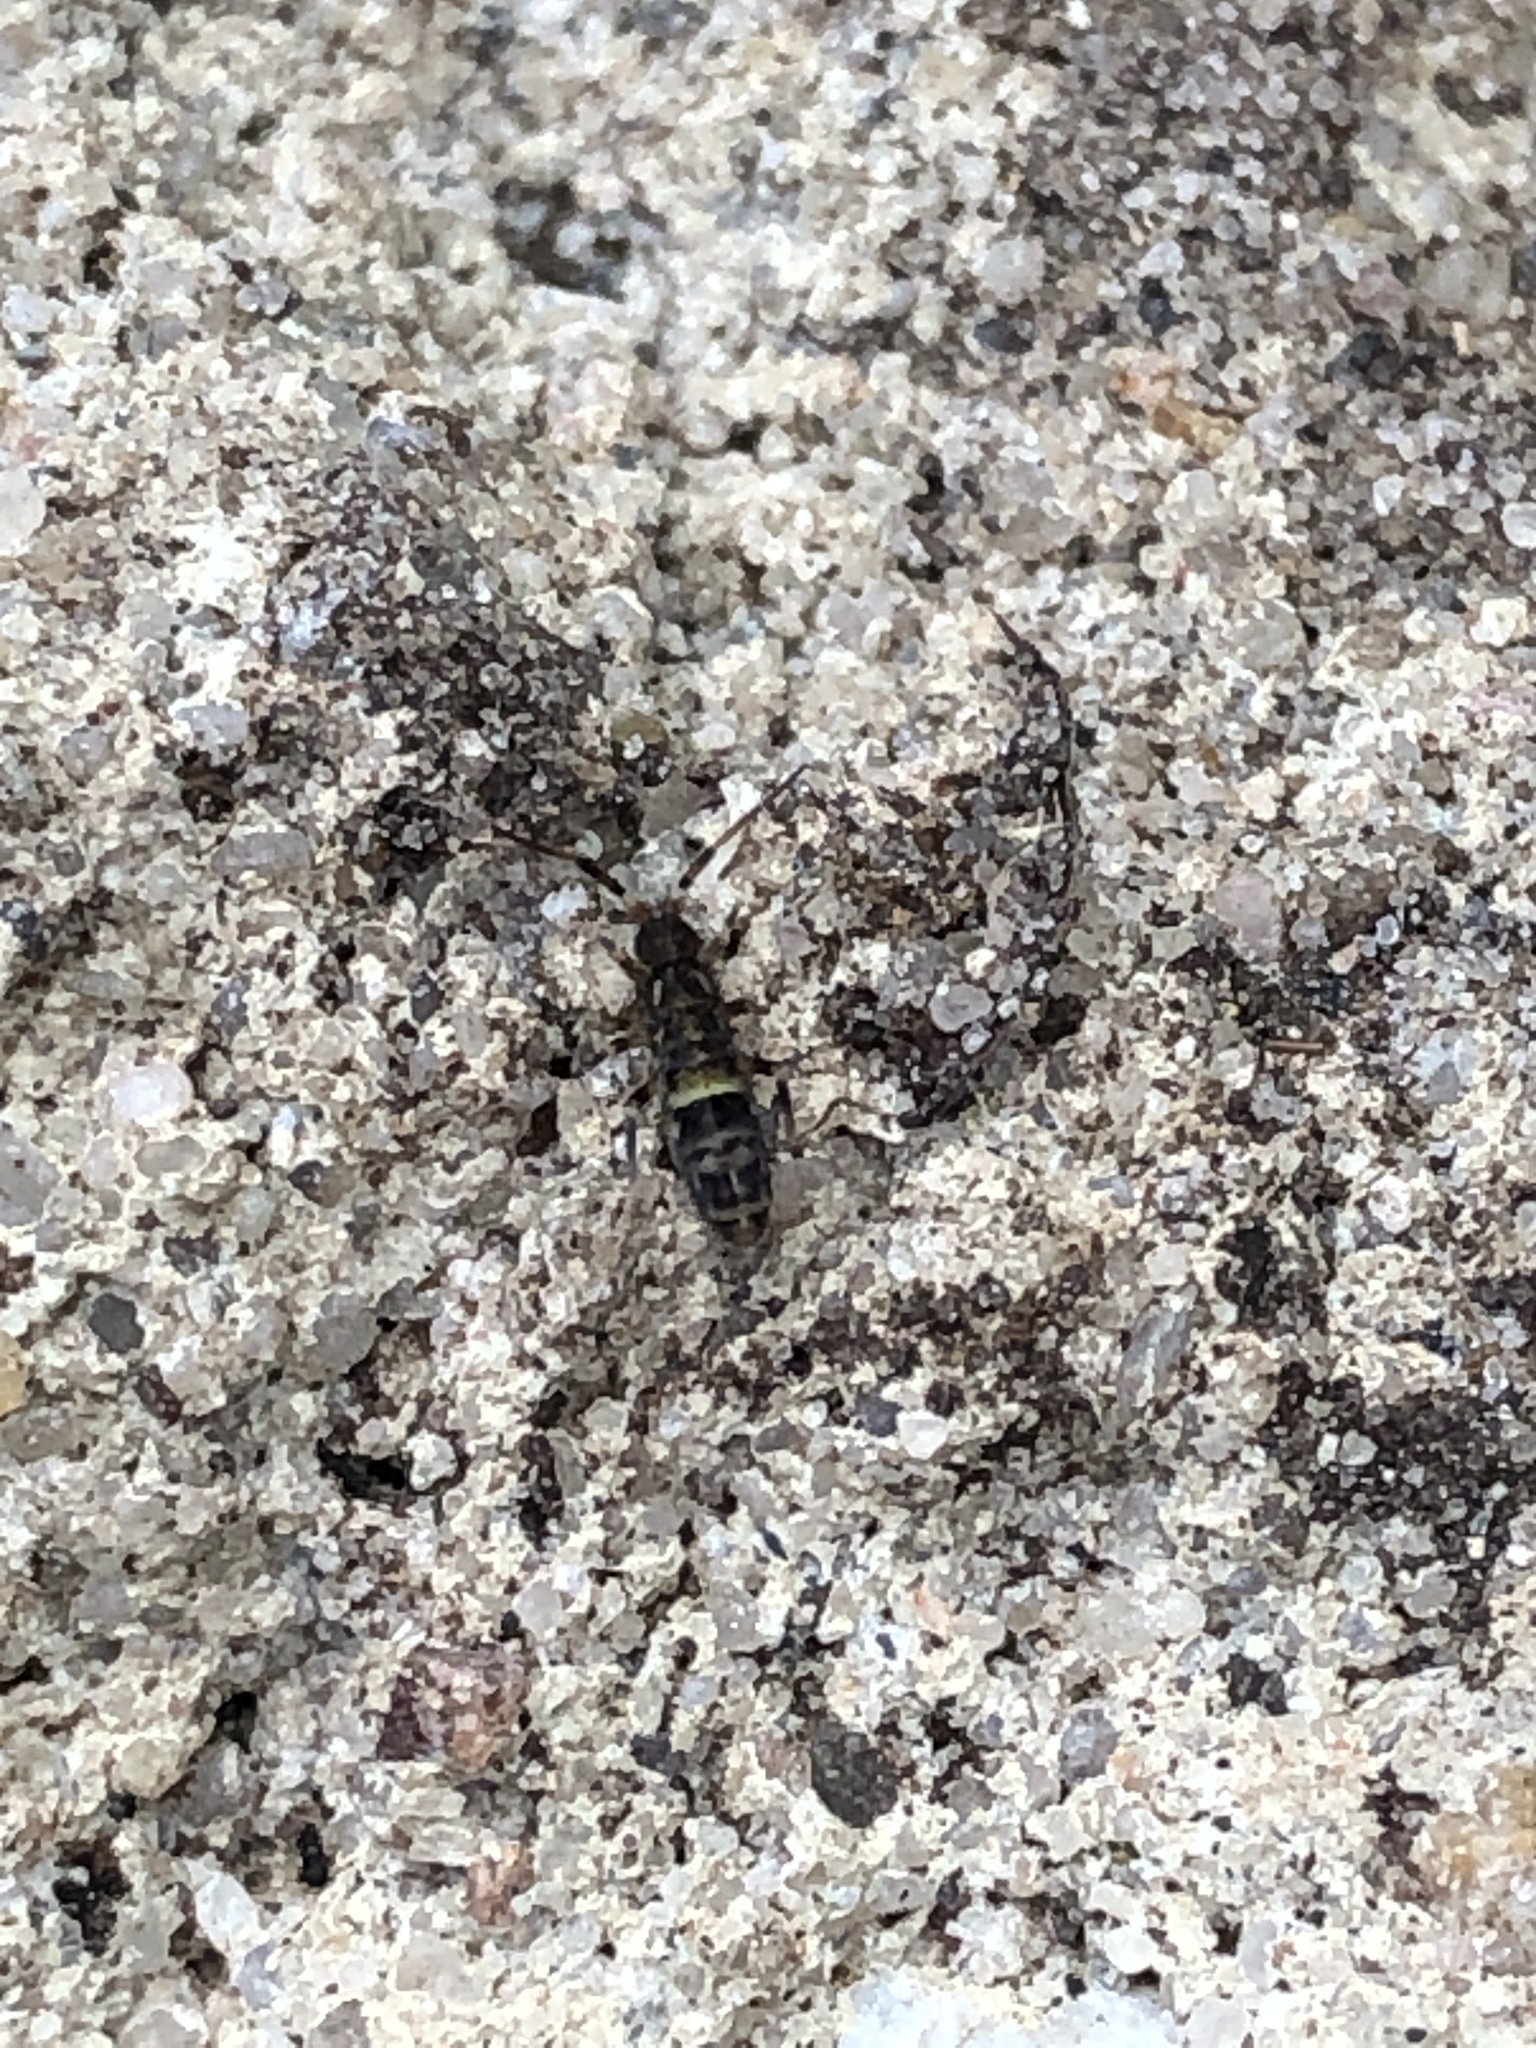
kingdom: Animalia
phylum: Arthropoda
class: Collembola
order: Entomobryomorpha
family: Orchesellidae
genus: Orchesella
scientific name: Orchesella cincta
